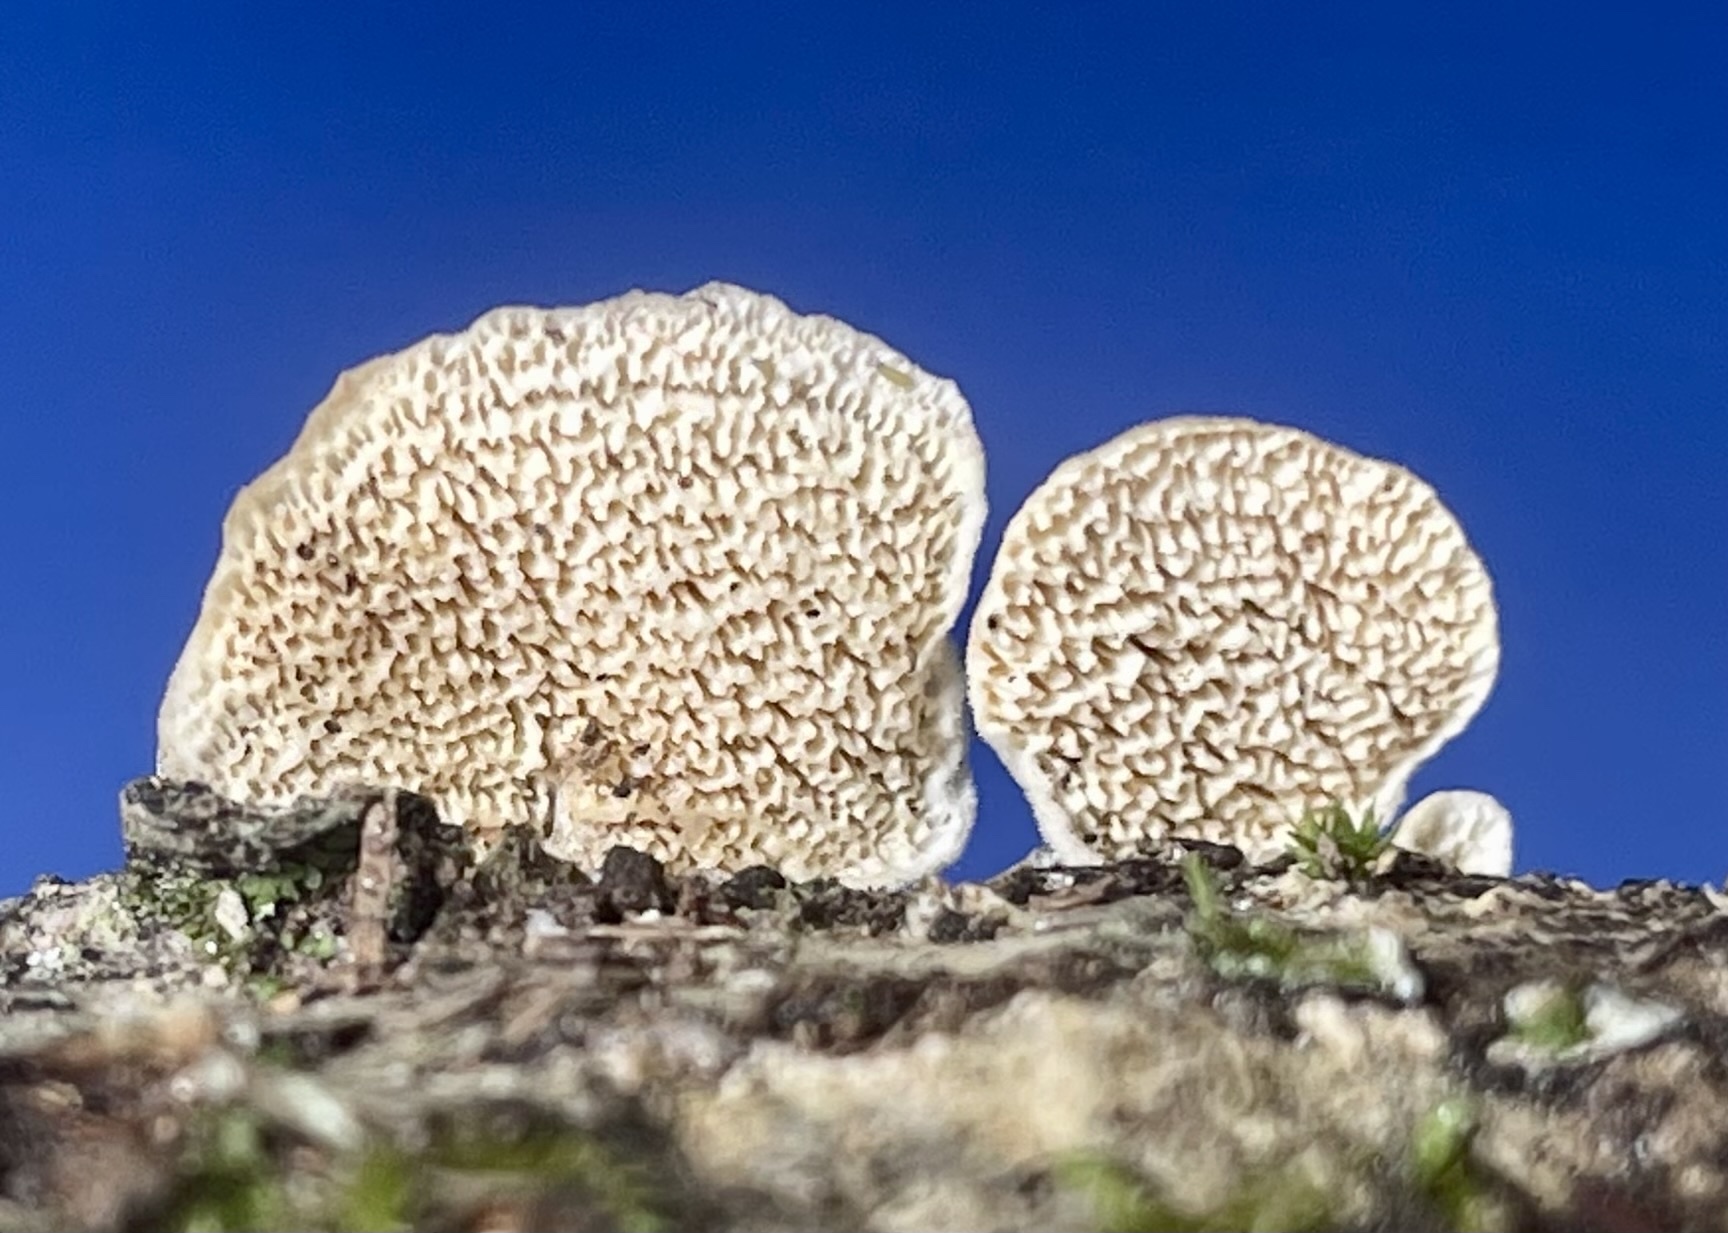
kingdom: Fungi
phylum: Basidiomycota
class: Agaricomycetes
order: Hymenochaetales
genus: Trichaptum
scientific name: Trichaptum biforme
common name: Violet-toothed polypore
